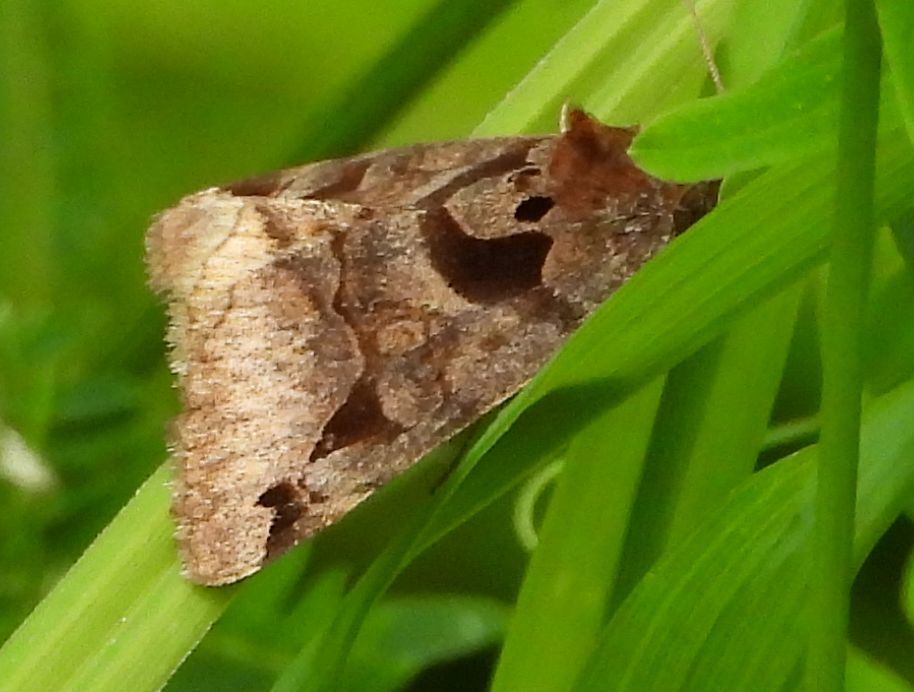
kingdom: Animalia
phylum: Arthropoda
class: Insecta
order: Lepidoptera
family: Erebidae
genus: Euclidia
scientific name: Euclidia cuspidea
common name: Toothed somberwing
